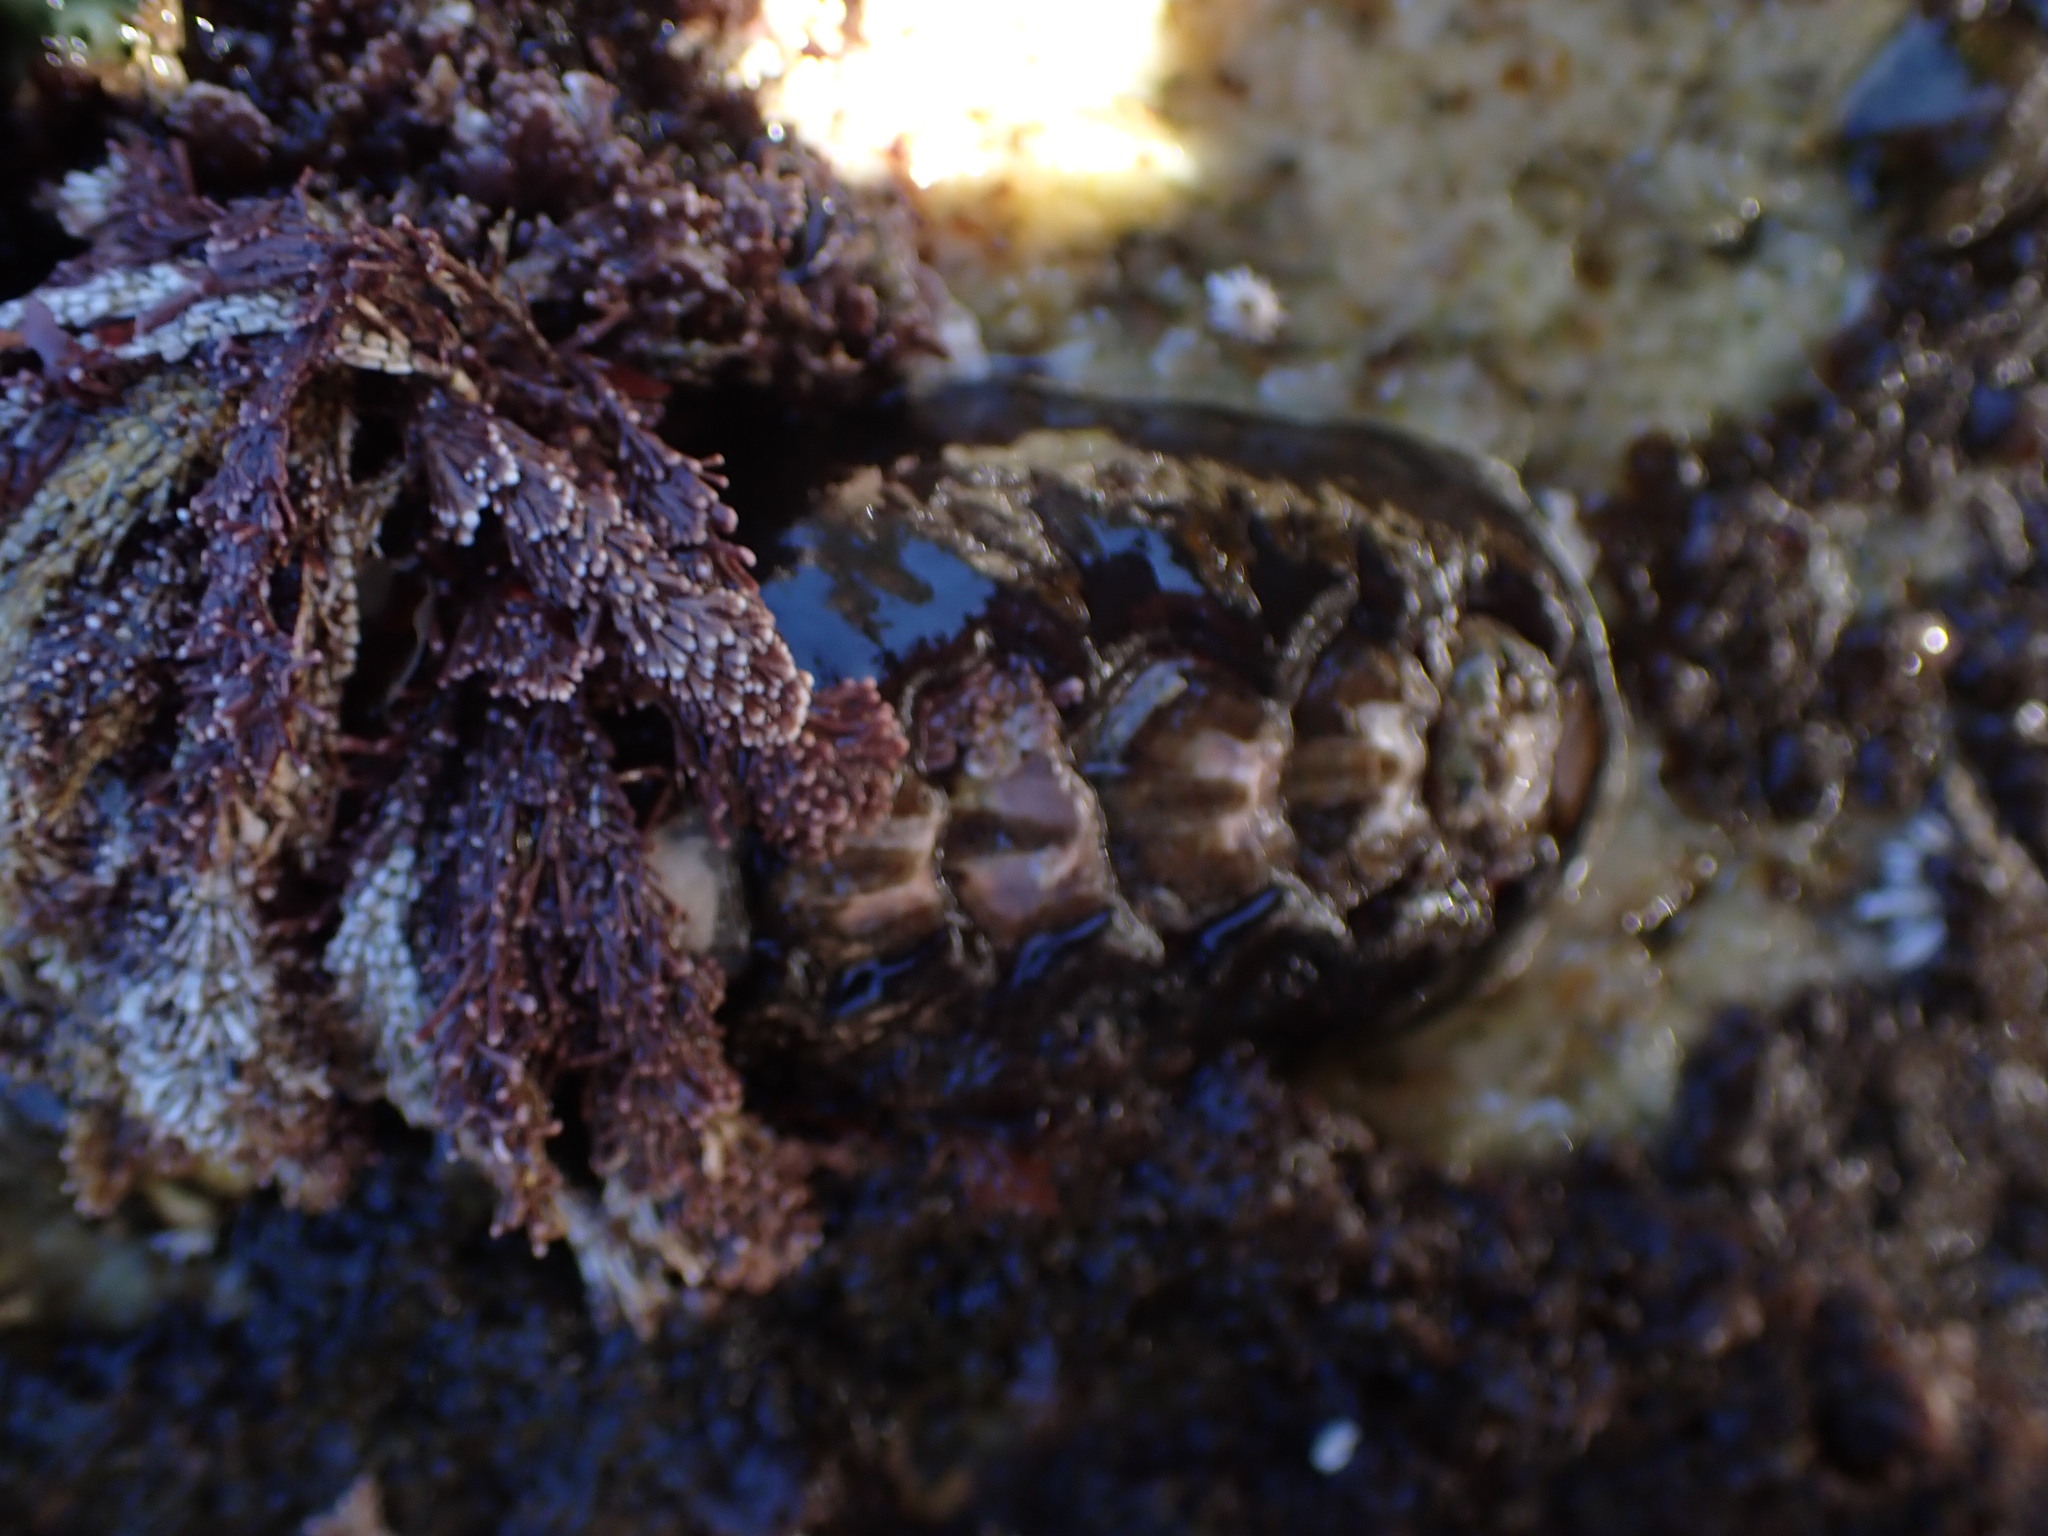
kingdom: Animalia
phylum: Mollusca
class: Polyplacophora
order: Chitonida
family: Mopaliidae
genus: Katharina
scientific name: Katharina tunicata
